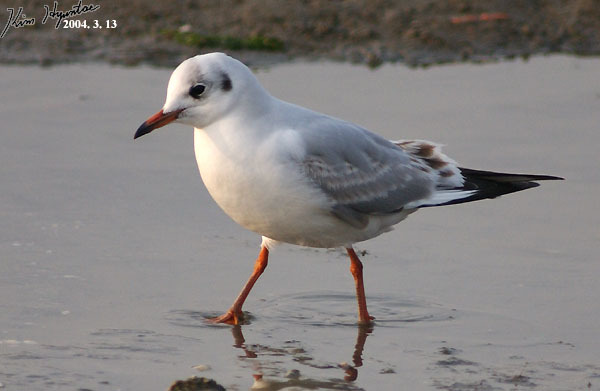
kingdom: Animalia
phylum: Chordata
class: Aves
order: Charadriiformes
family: Laridae
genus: Chroicocephalus
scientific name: Chroicocephalus ridibundus
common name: Black-headed gull
